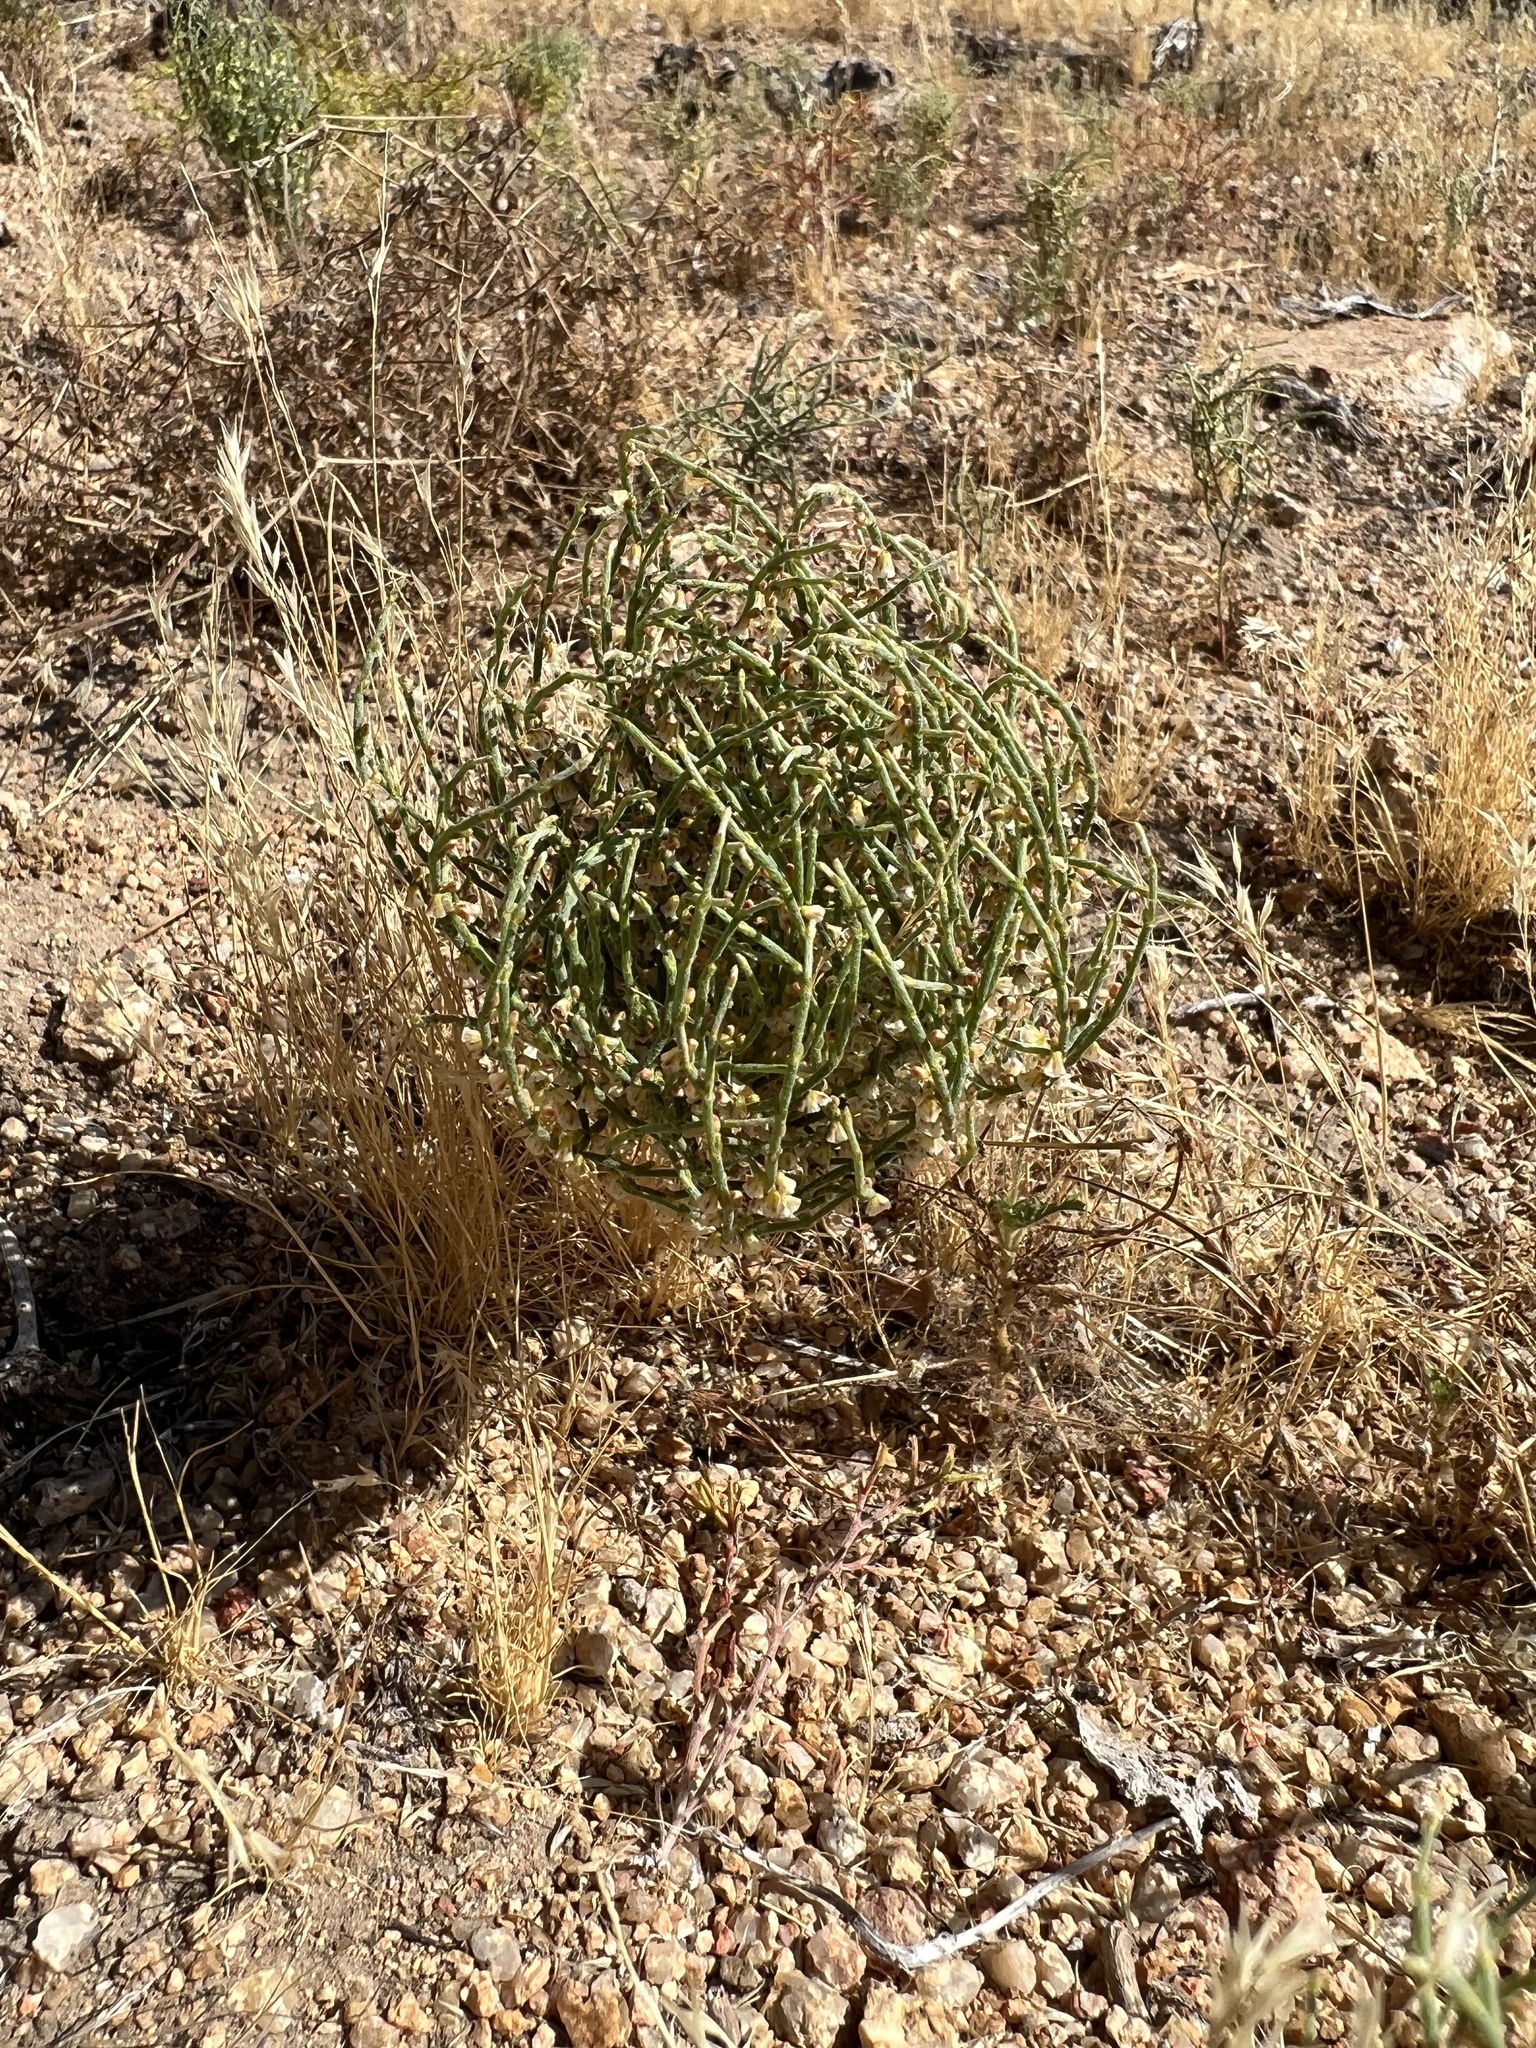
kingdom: Plantae
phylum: Tracheophyta
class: Magnoliopsida
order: Caryophyllales
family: Polygonaceae
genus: Eriogonum
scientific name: Eriogonum nidularium
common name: Bird's-nest wild buckwheat
